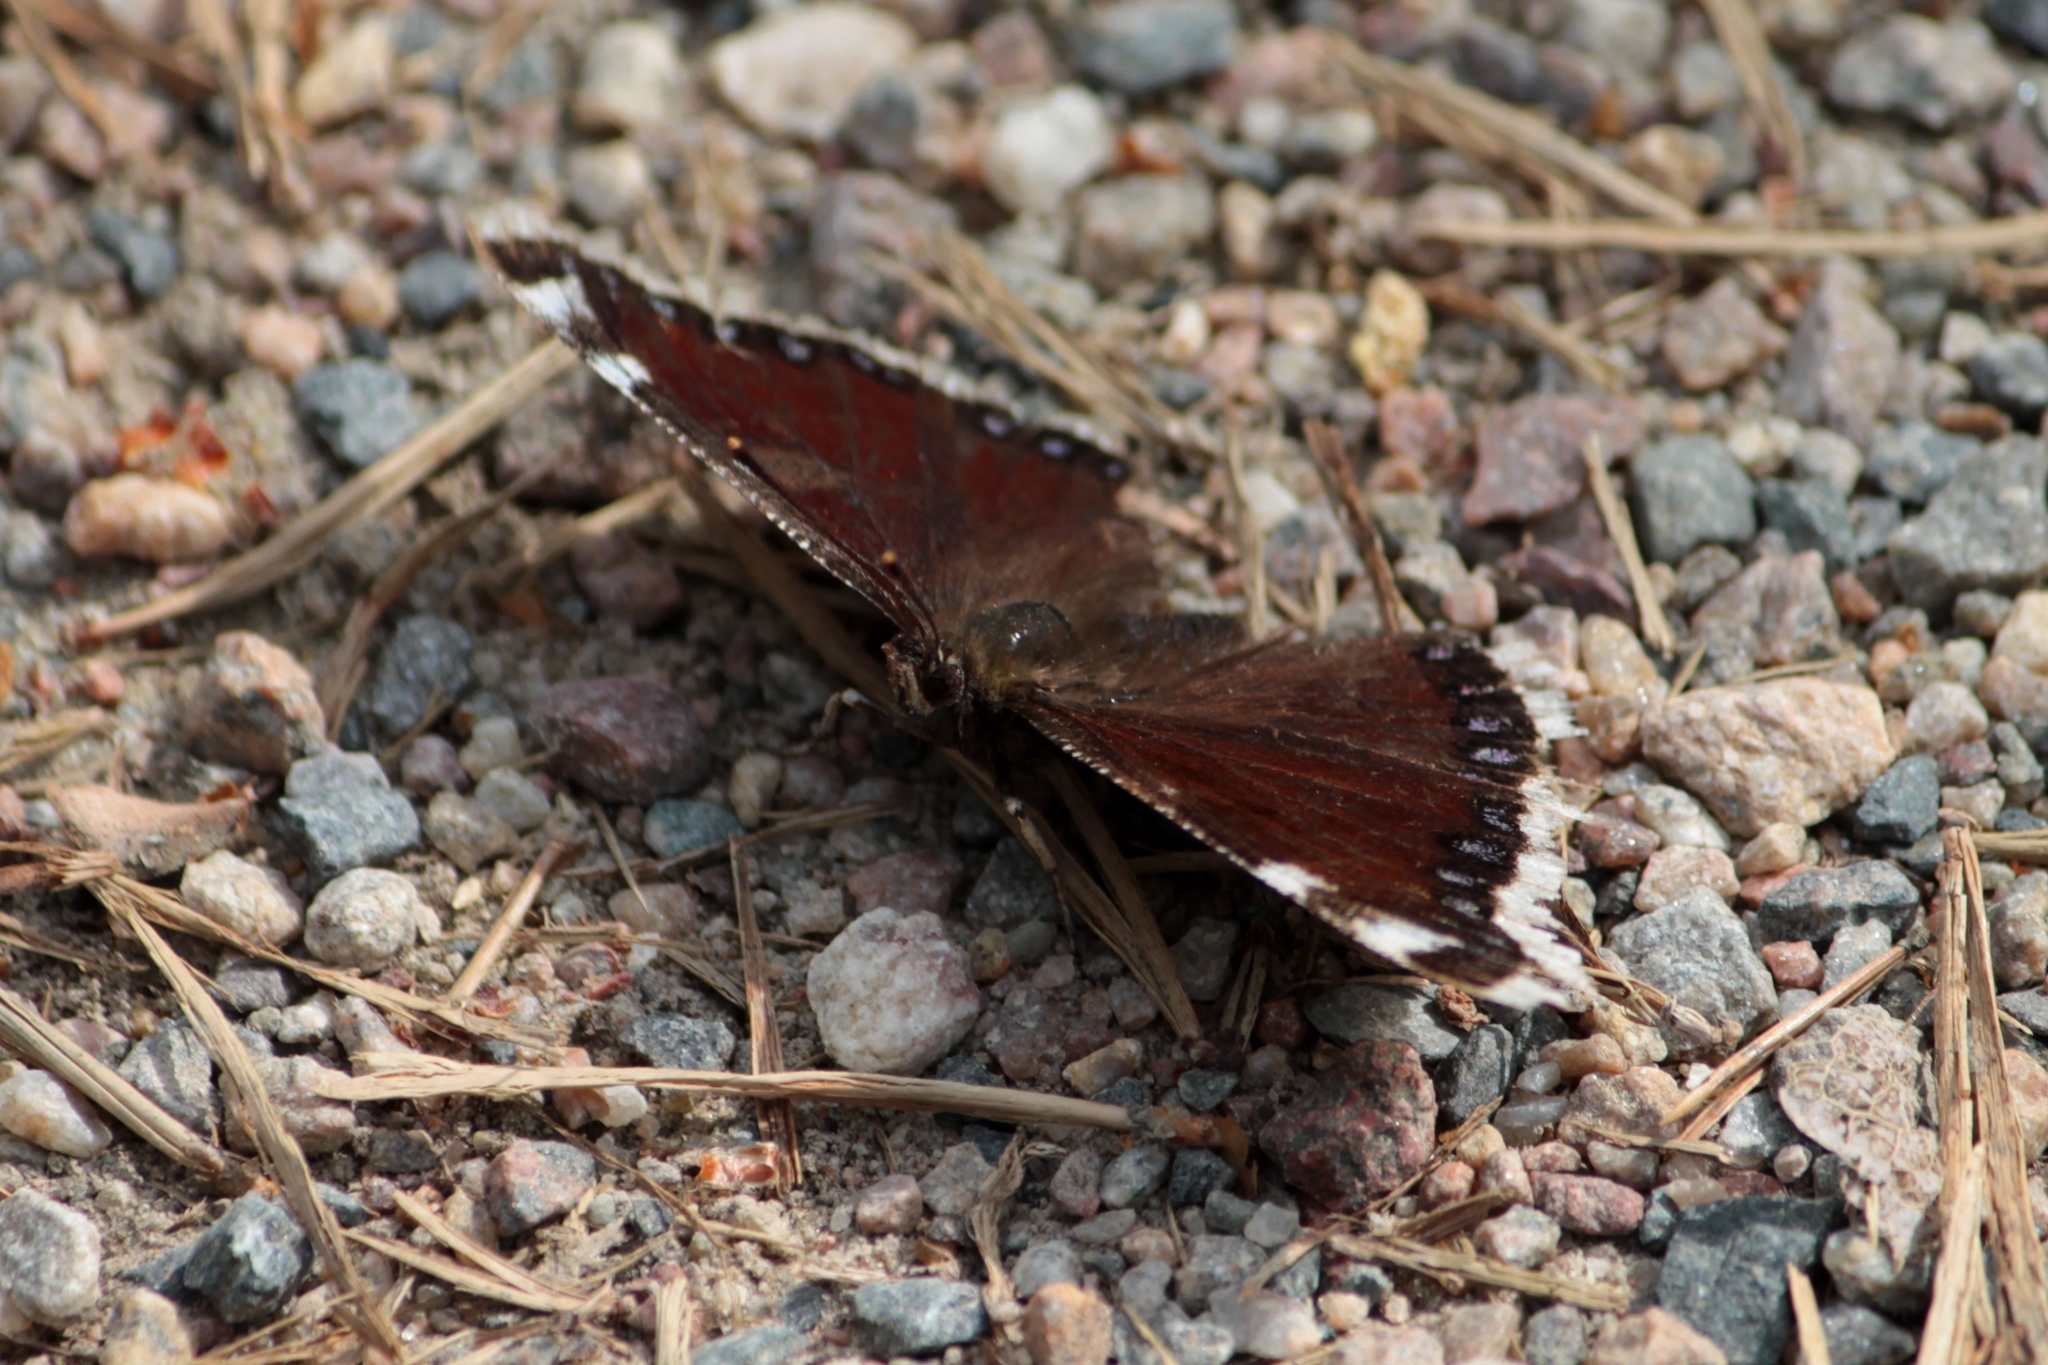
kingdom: Animalia
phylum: Arthropoda
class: Insecta
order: Lepidoptera
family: Nymphalidae
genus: Nymphalis
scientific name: Nymphalis antiopa
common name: Camberwell beauty
